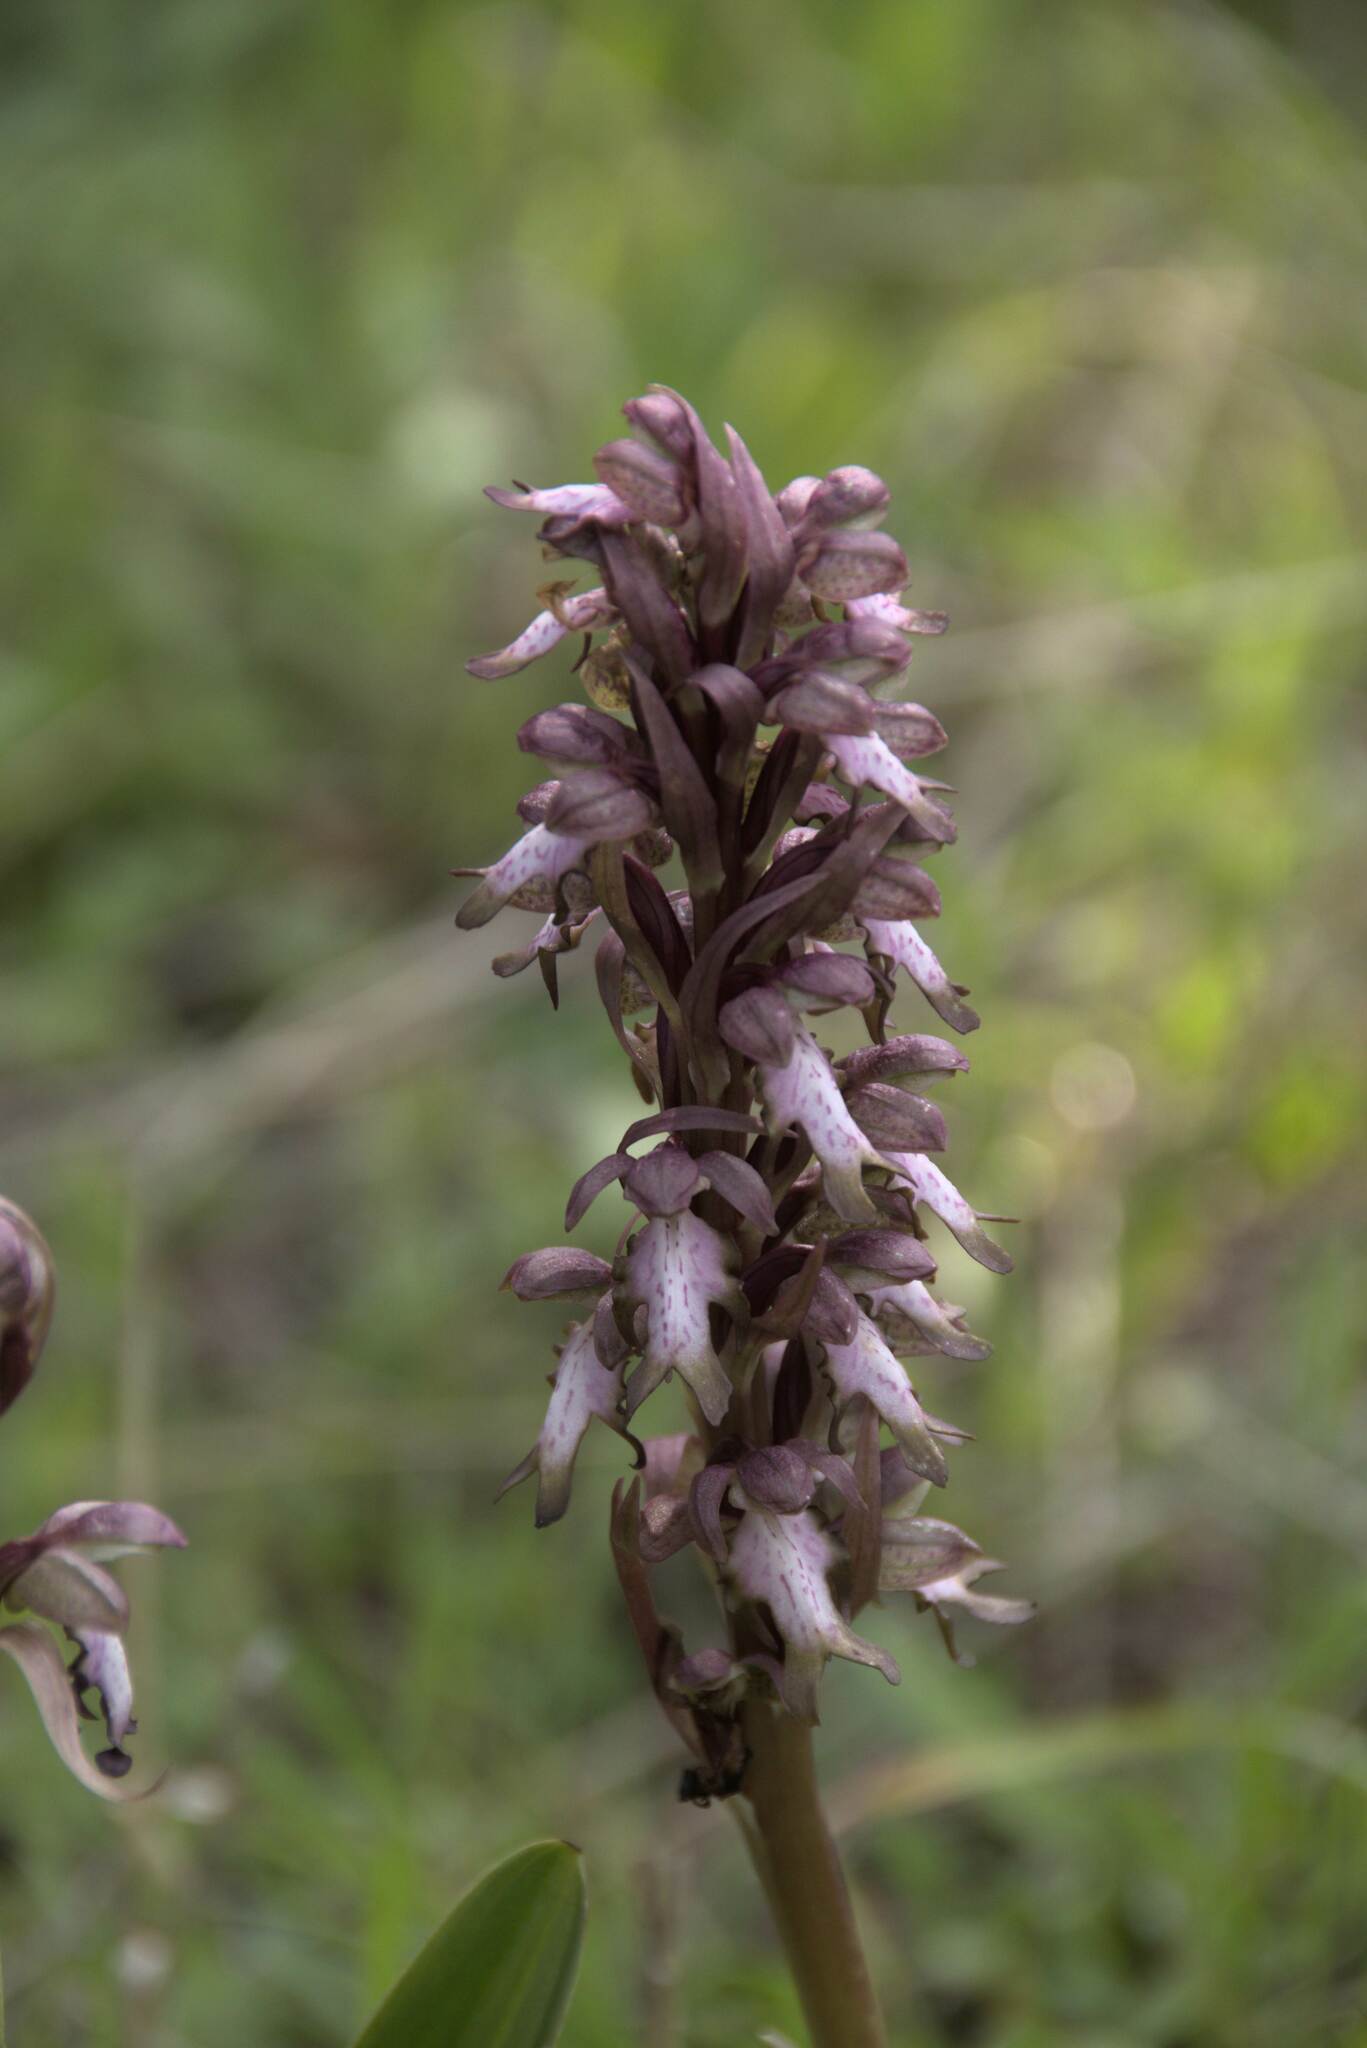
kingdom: Plantae
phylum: Tracheophyta
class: Liliopsida
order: Asparagales
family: Orchidaceae
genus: Himantoglossum
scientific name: Himantoglossum robertianum
